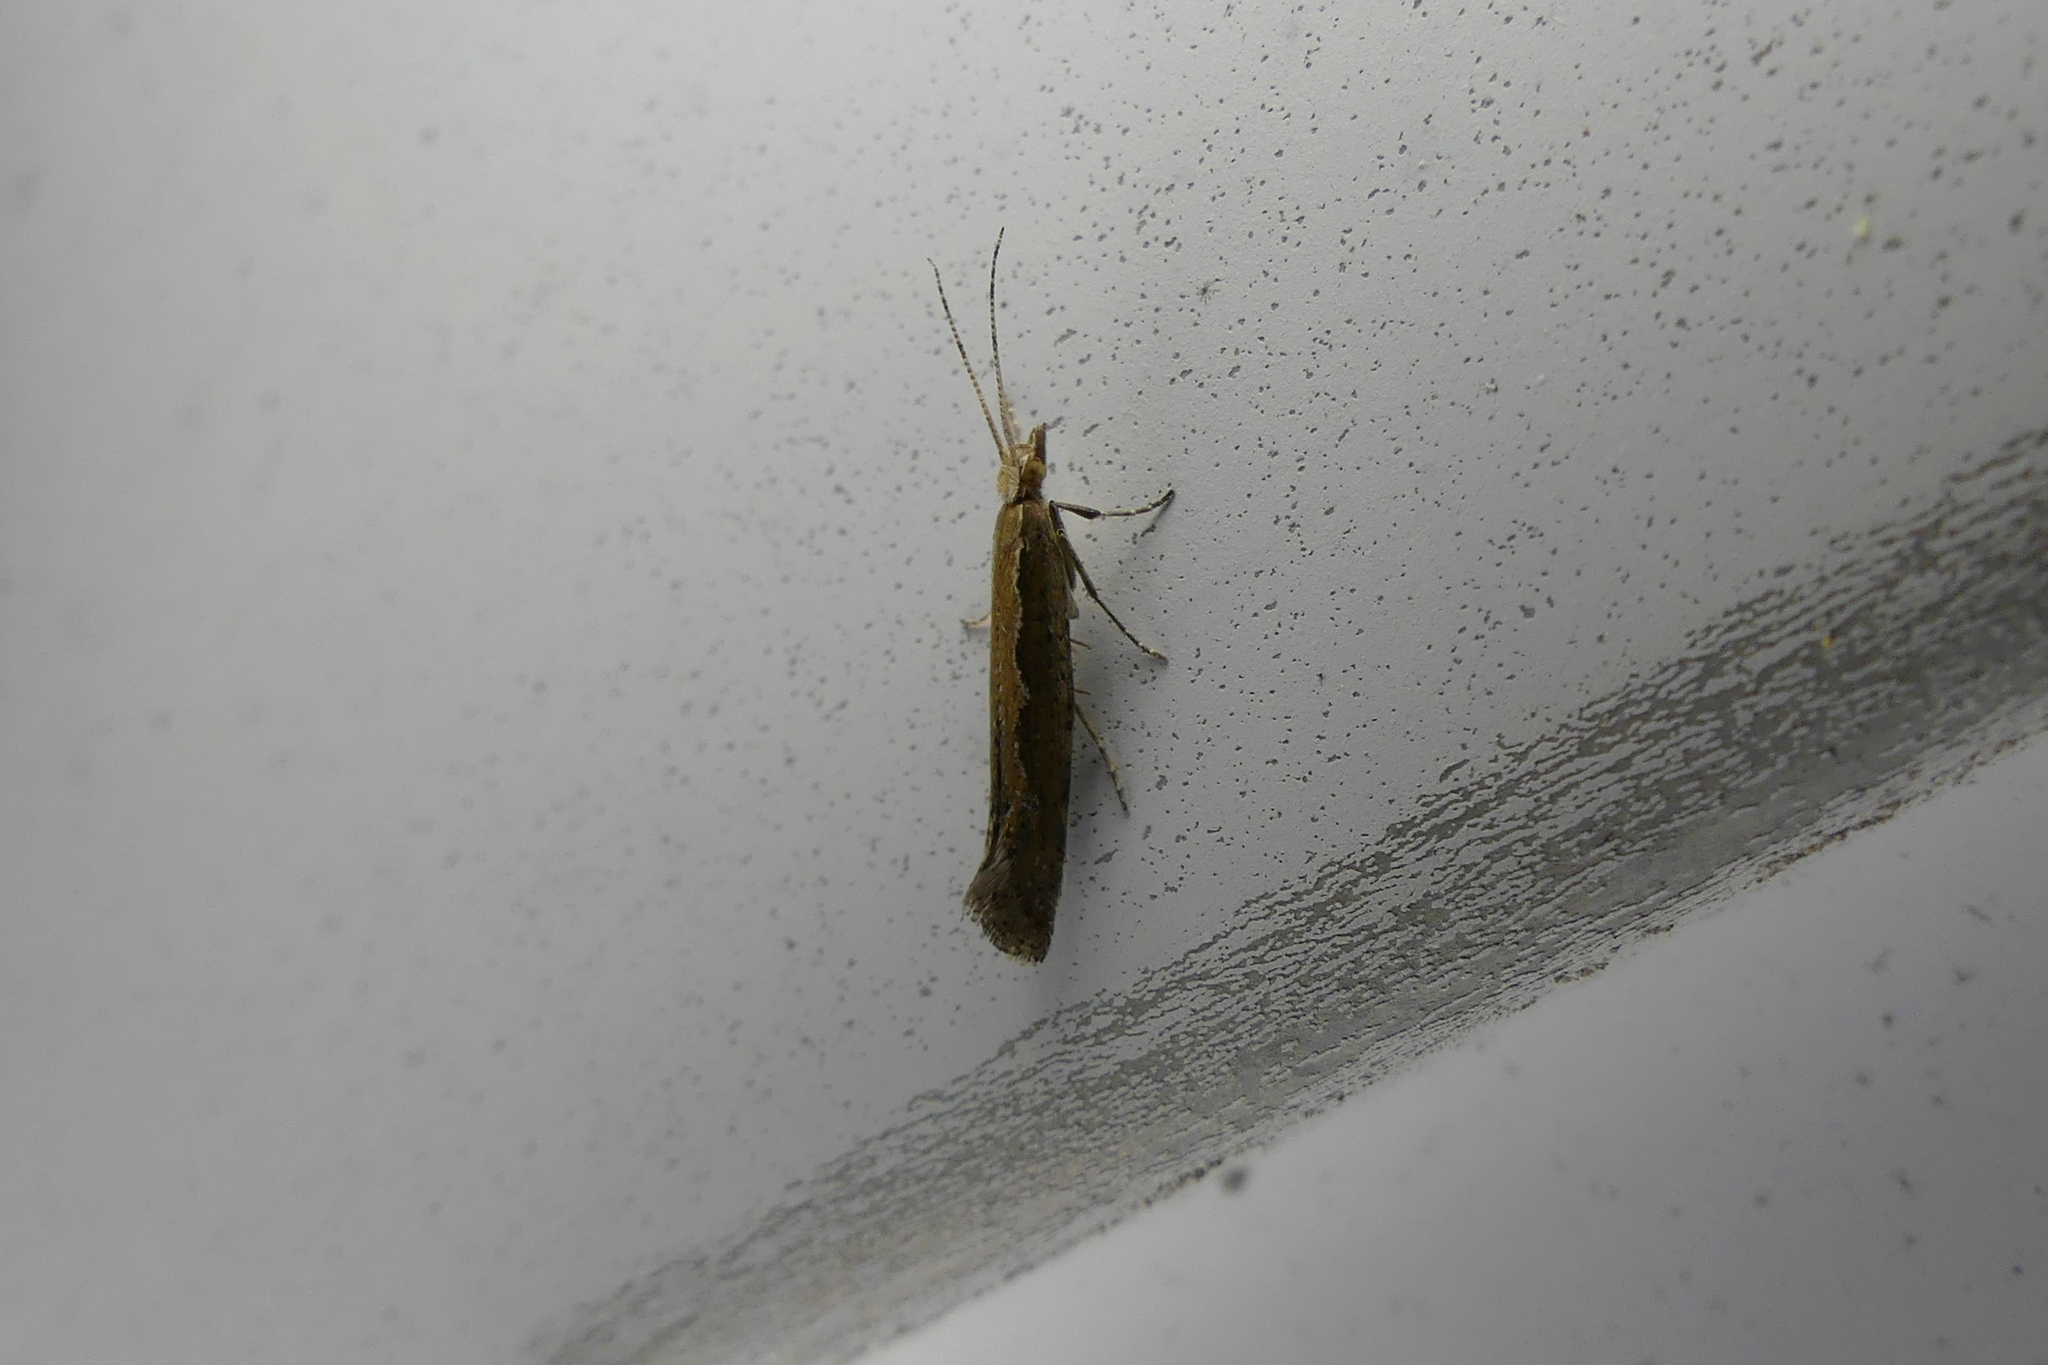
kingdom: Animalia
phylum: Arthropoda
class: Insecta
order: Lepidoptera
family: Plutellidae
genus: Plutella
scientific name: Plutella xylostella
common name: Diamond-back moth
